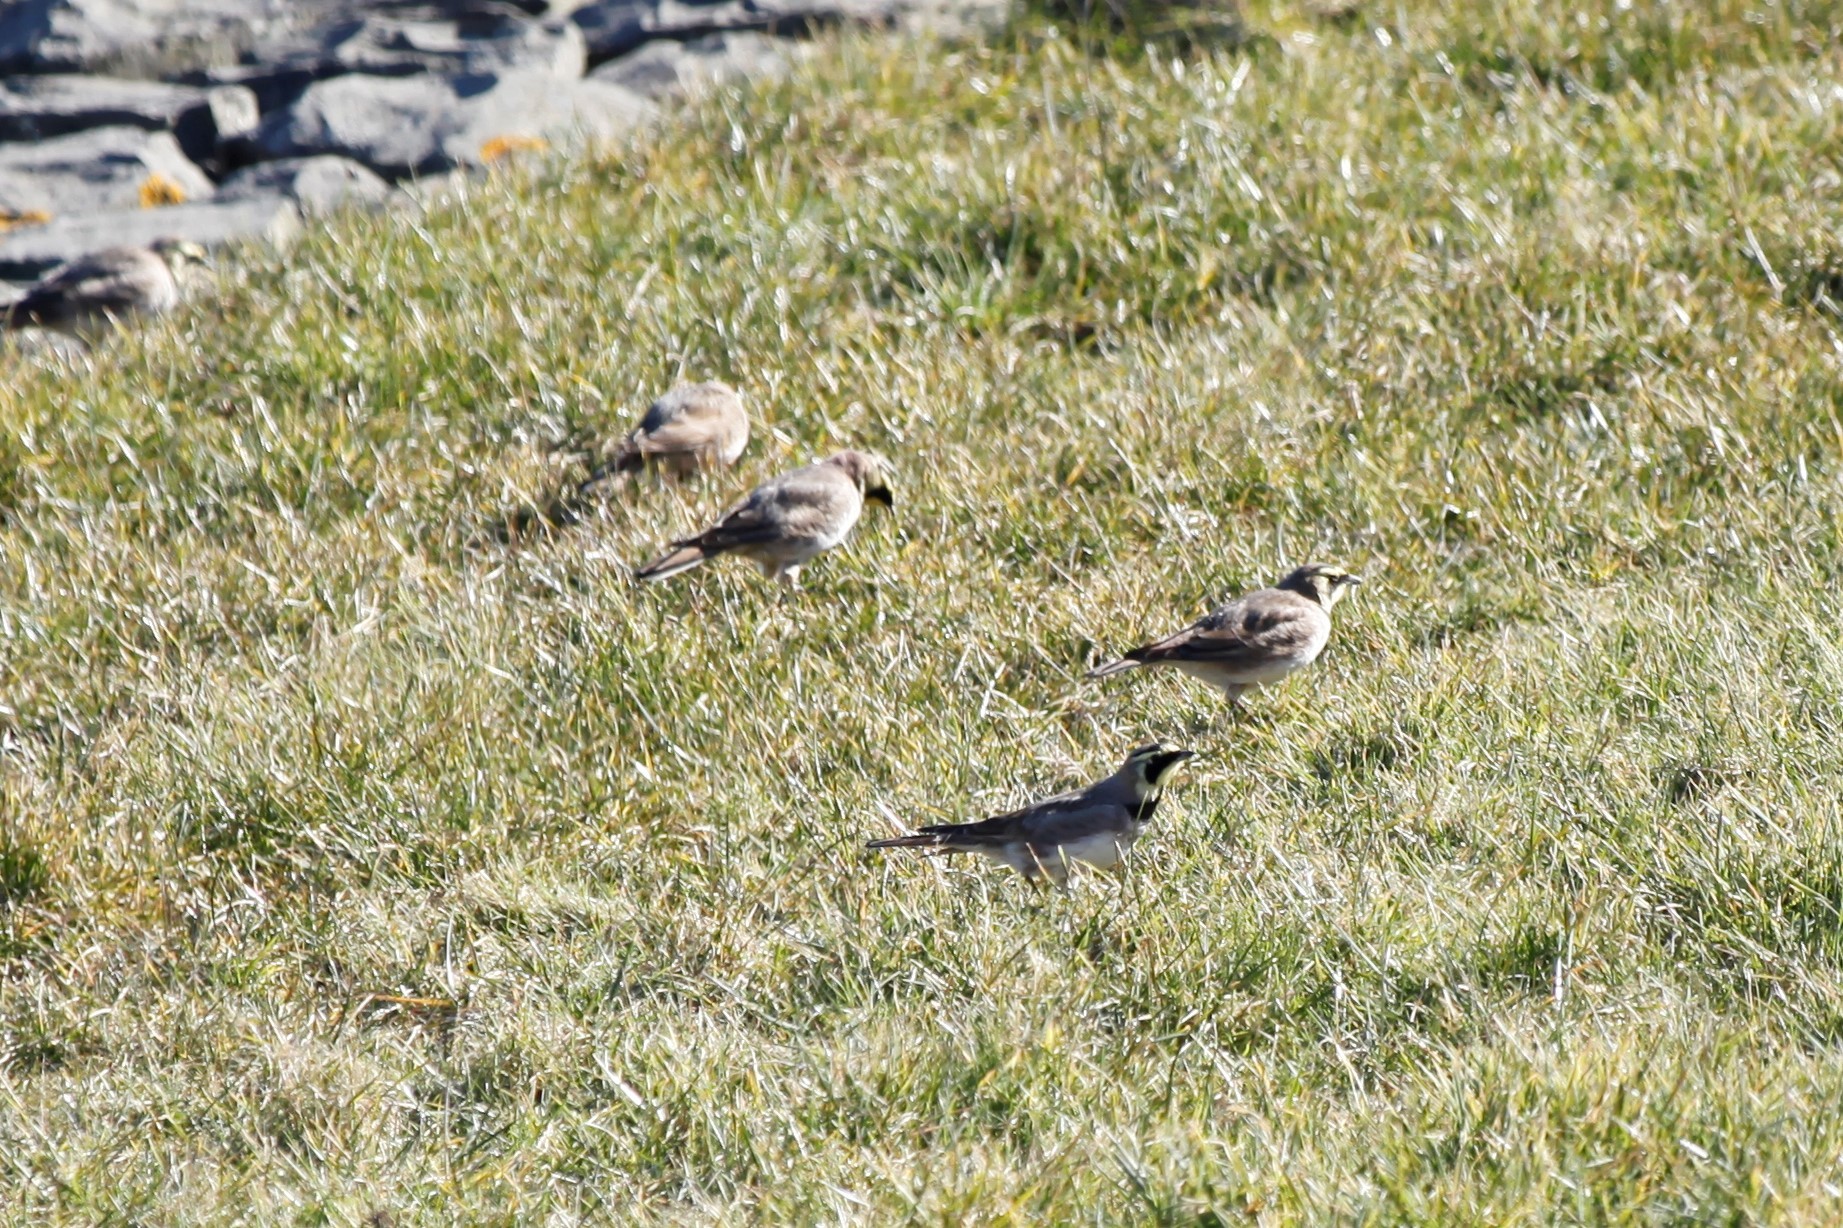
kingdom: Animalia
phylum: Chordata
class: Aves
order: Passeriformes
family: Alaudidae
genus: Eremophila
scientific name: Eremophila alpestris
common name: Horned lark
